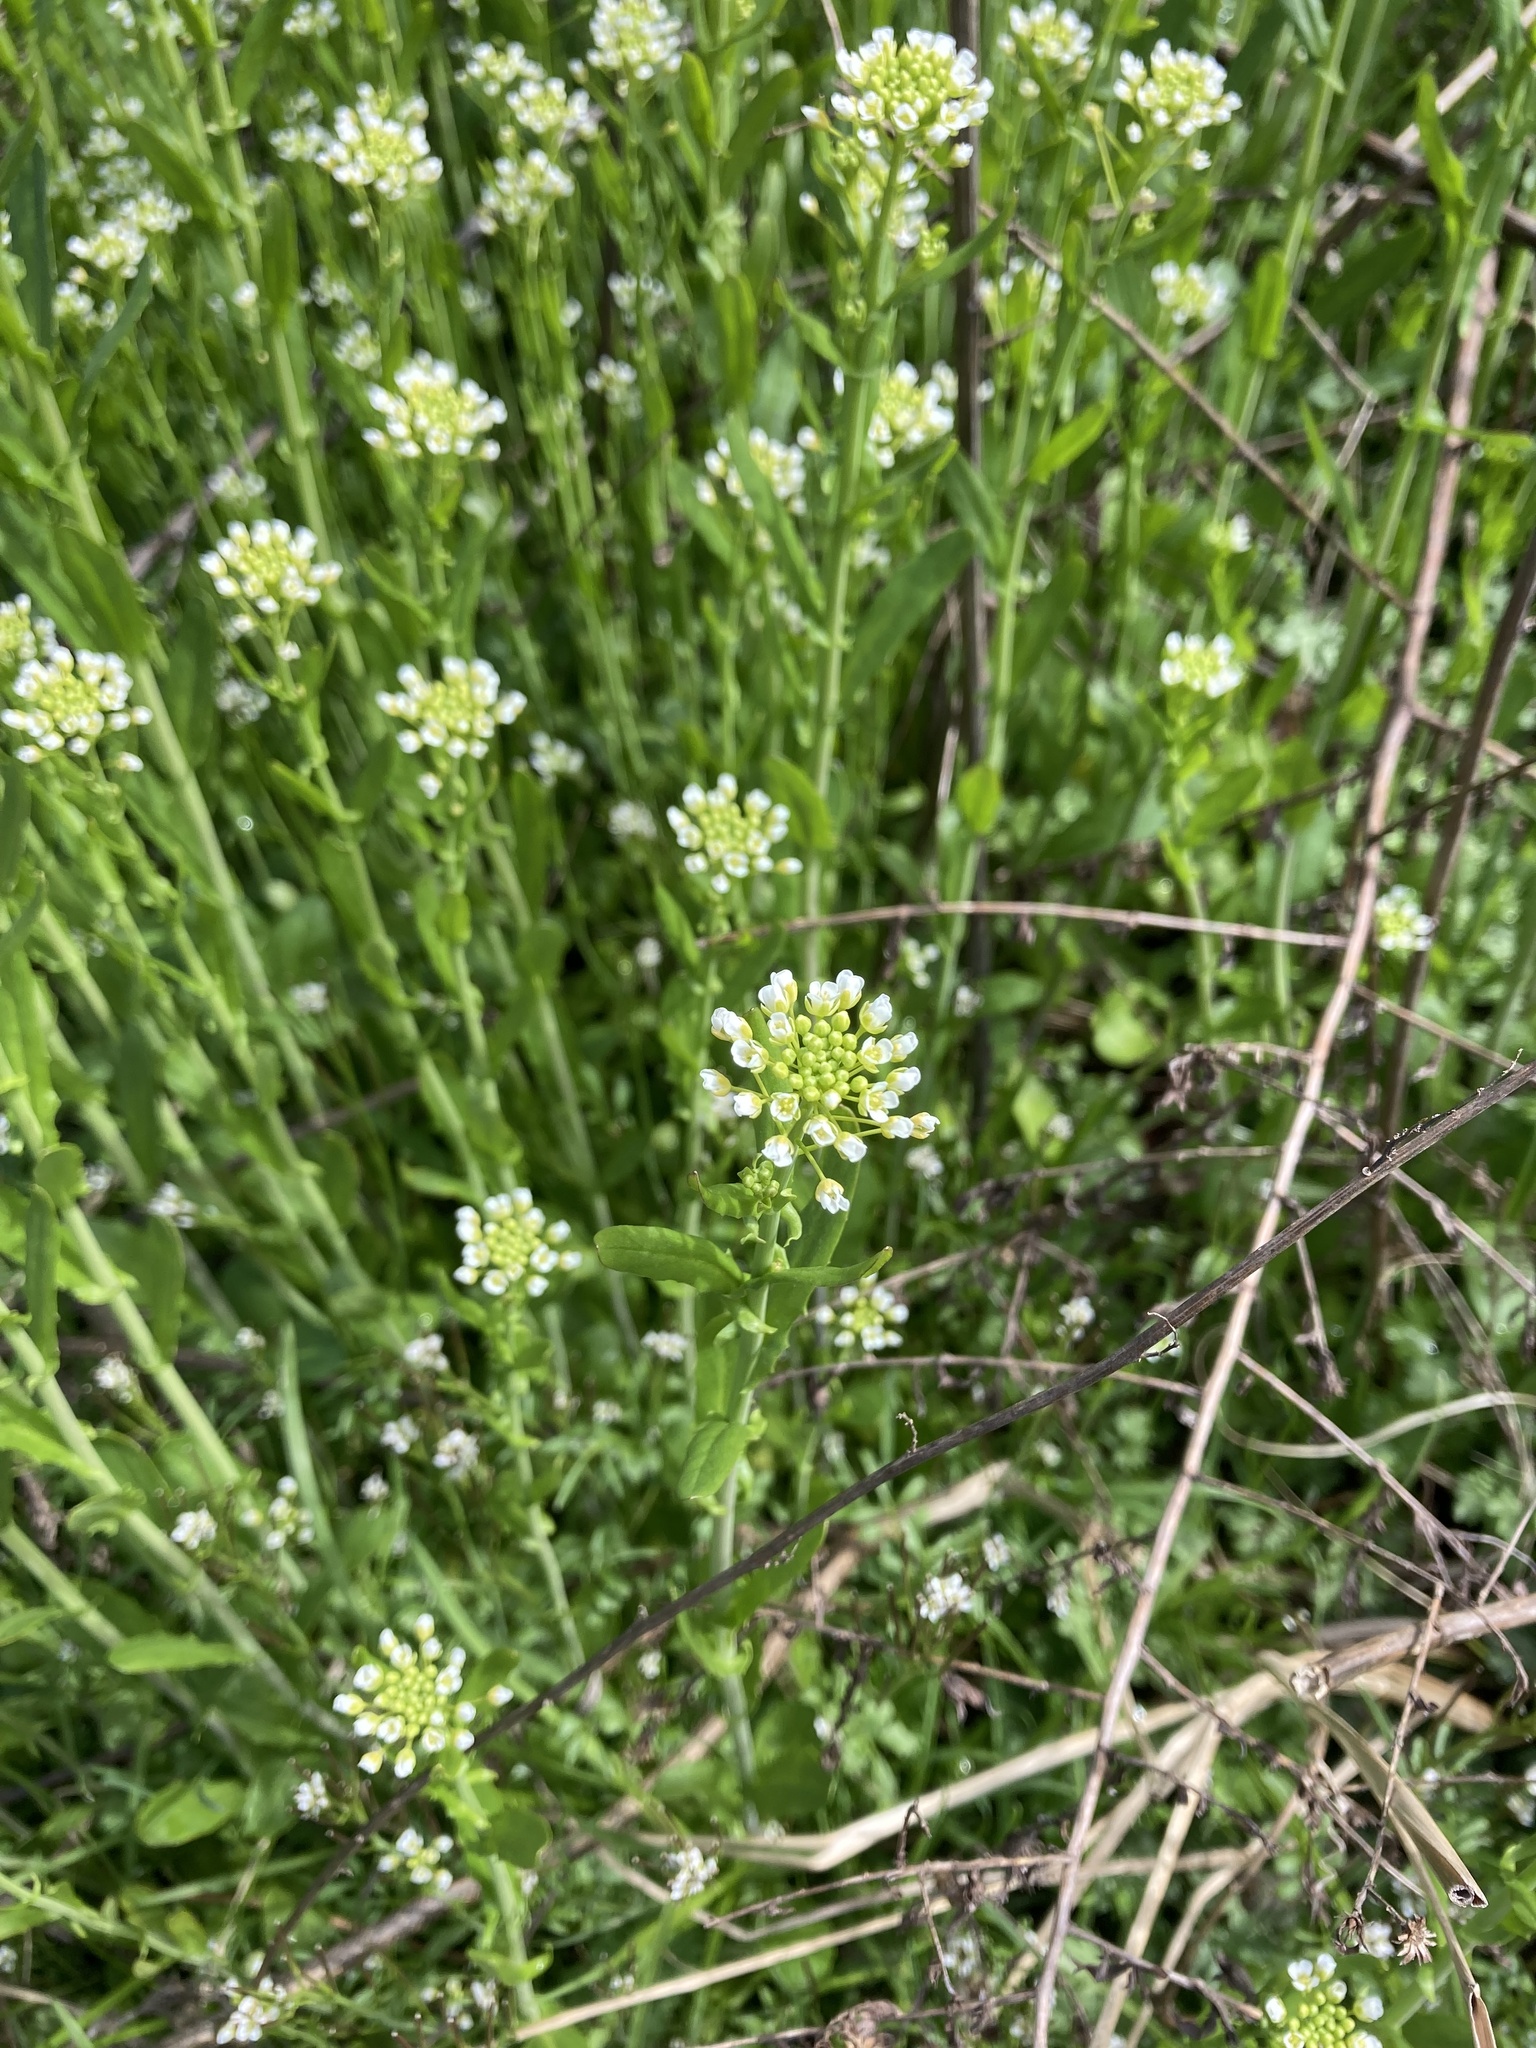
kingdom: Plantae
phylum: Tracheophyta
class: Magnoliopsida
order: Brassicales
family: Brassicaceae
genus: Mummenhoffia
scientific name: Mummenhoffia alliacea
